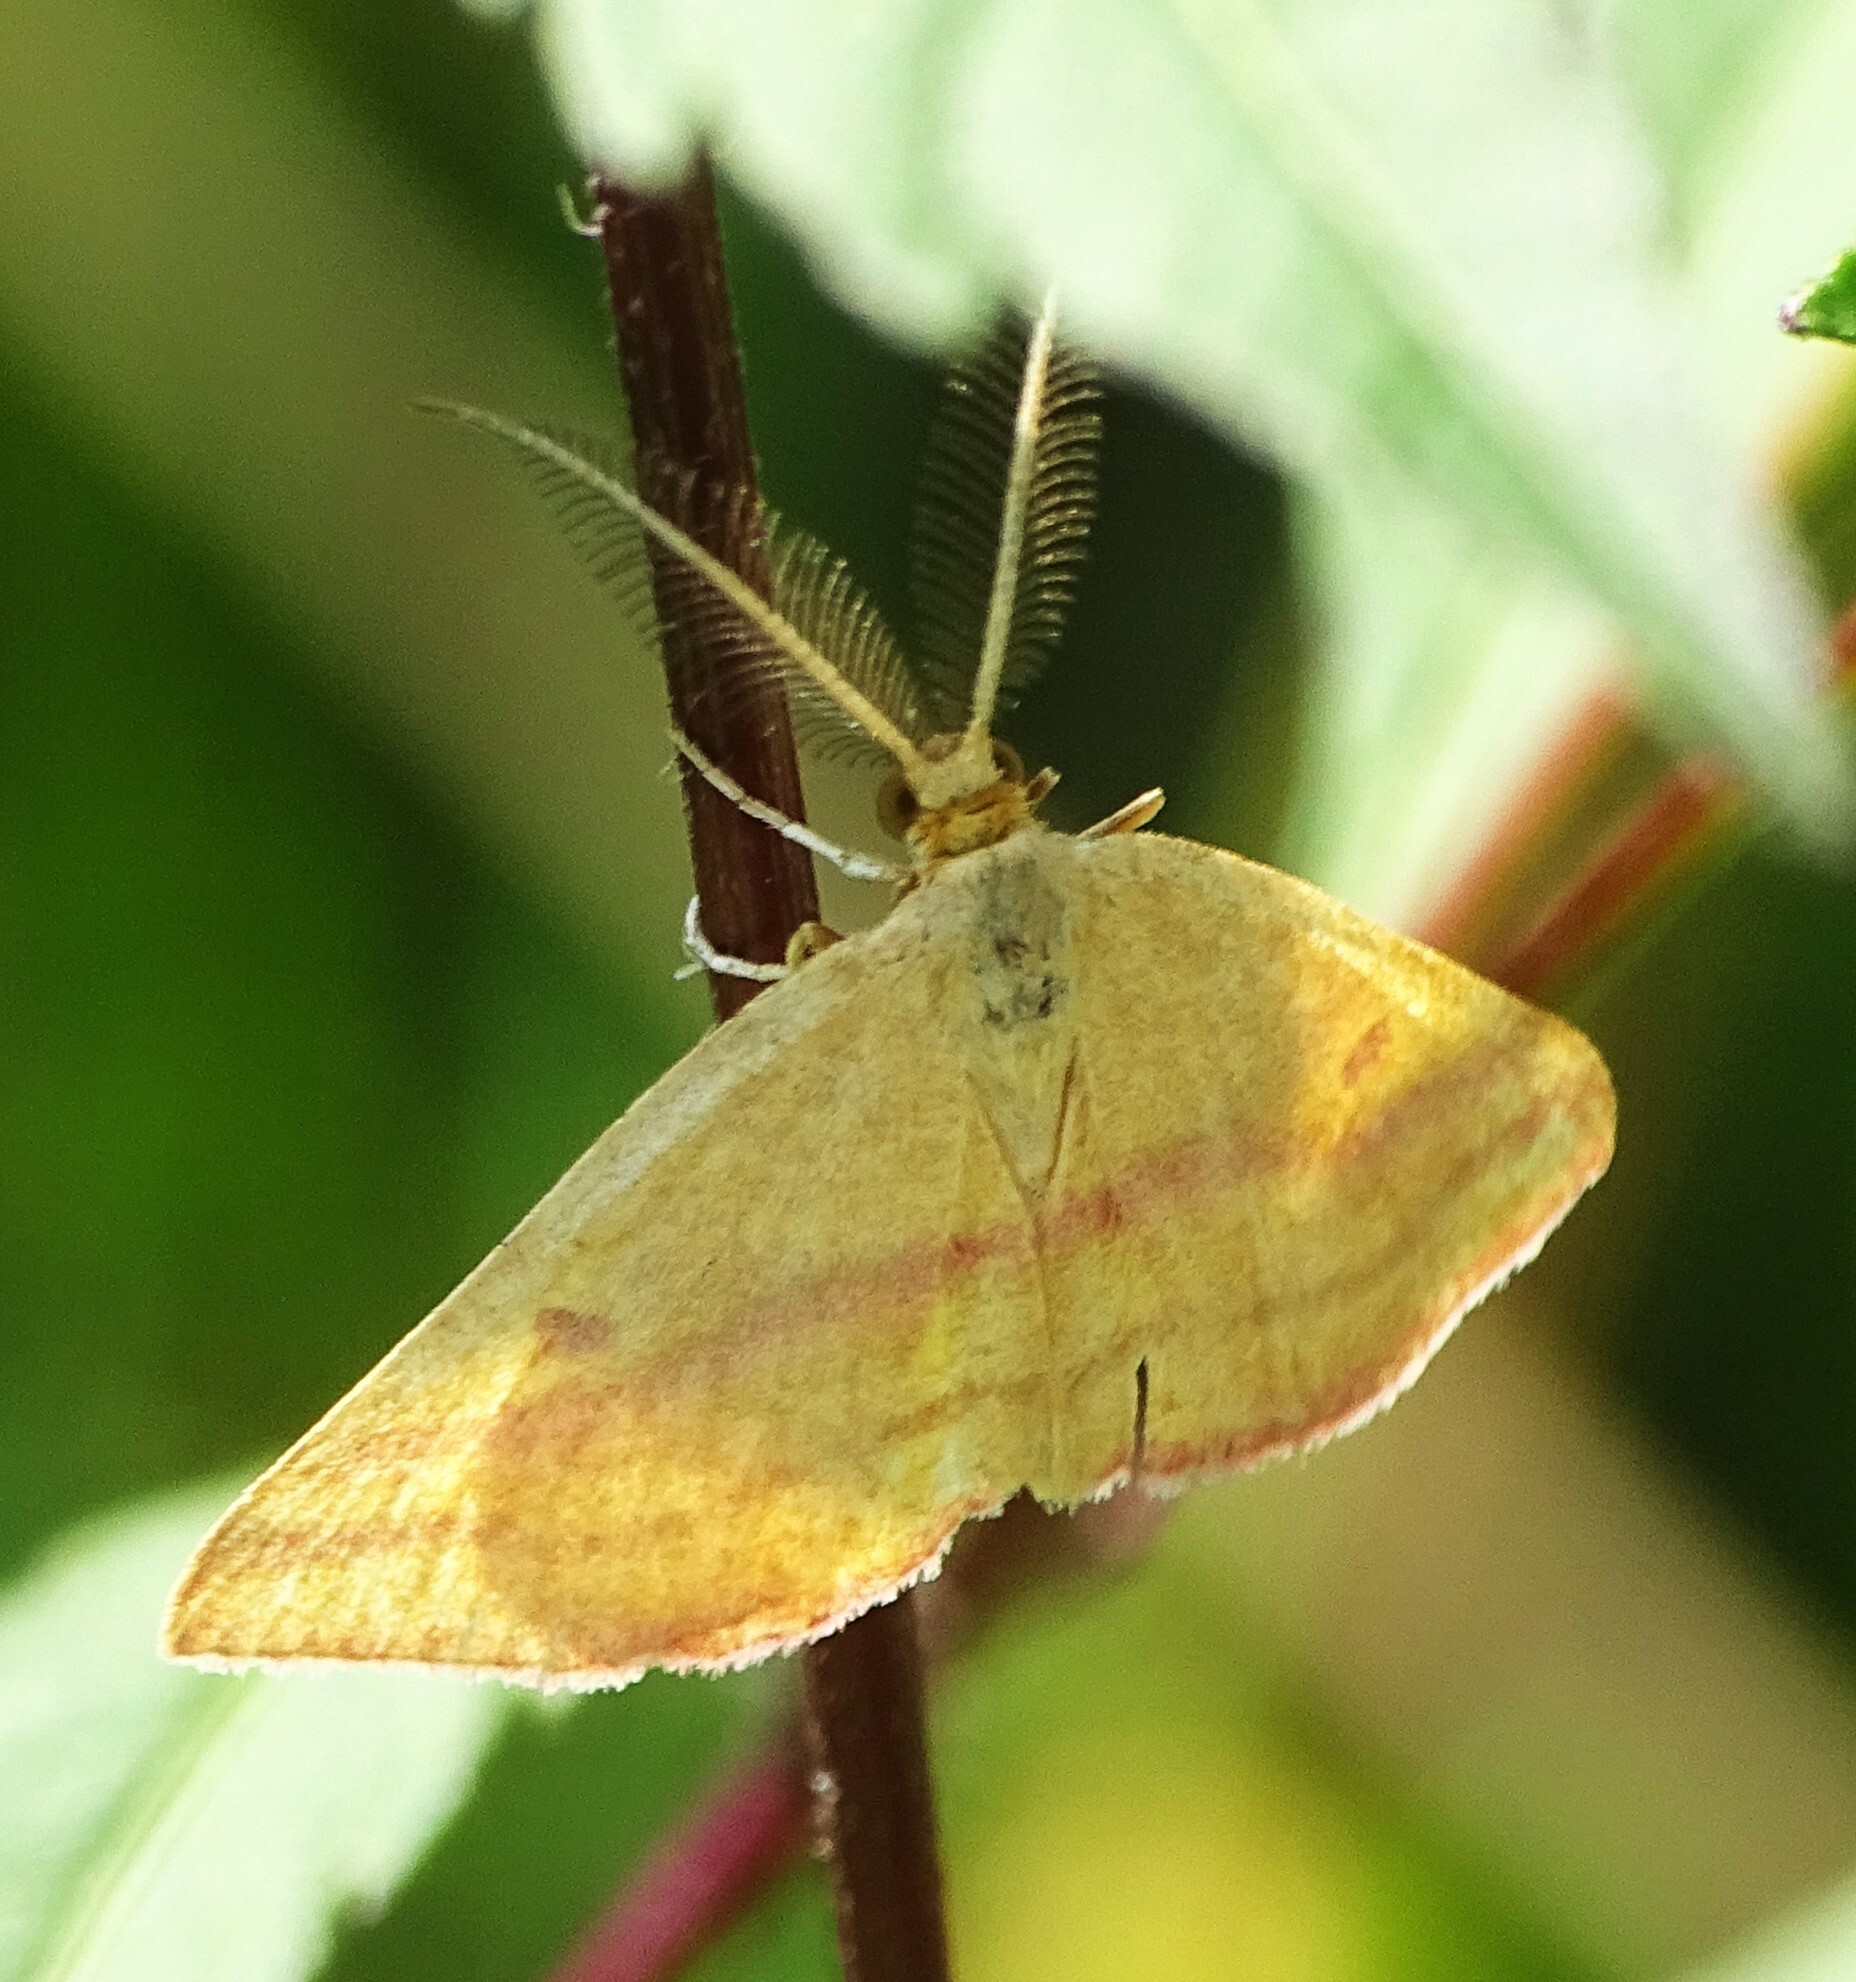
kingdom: Animalia
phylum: Arthropoda
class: Insecta
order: Lepidoptera
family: Geometridae
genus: Haematopis
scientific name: Haematopis grataria
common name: Chickweed geometer
